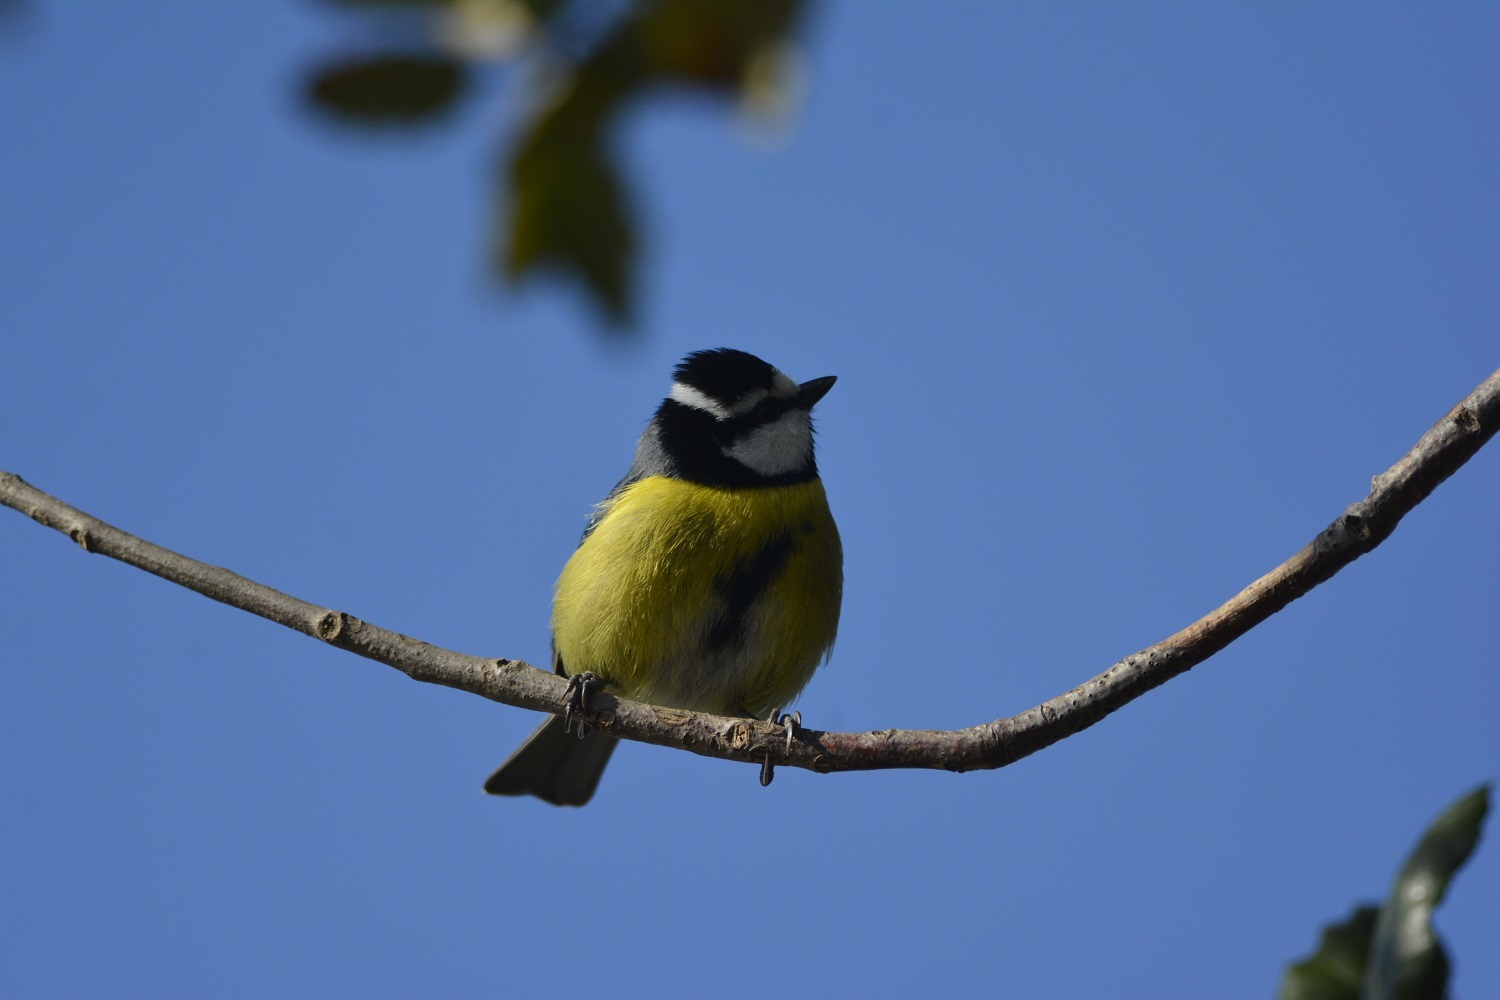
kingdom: Animalia
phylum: Chordata
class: Aves
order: Passeriformes
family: Paridae
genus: Cyanistes
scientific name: Cyanistes teneriffae
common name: African blue tit
